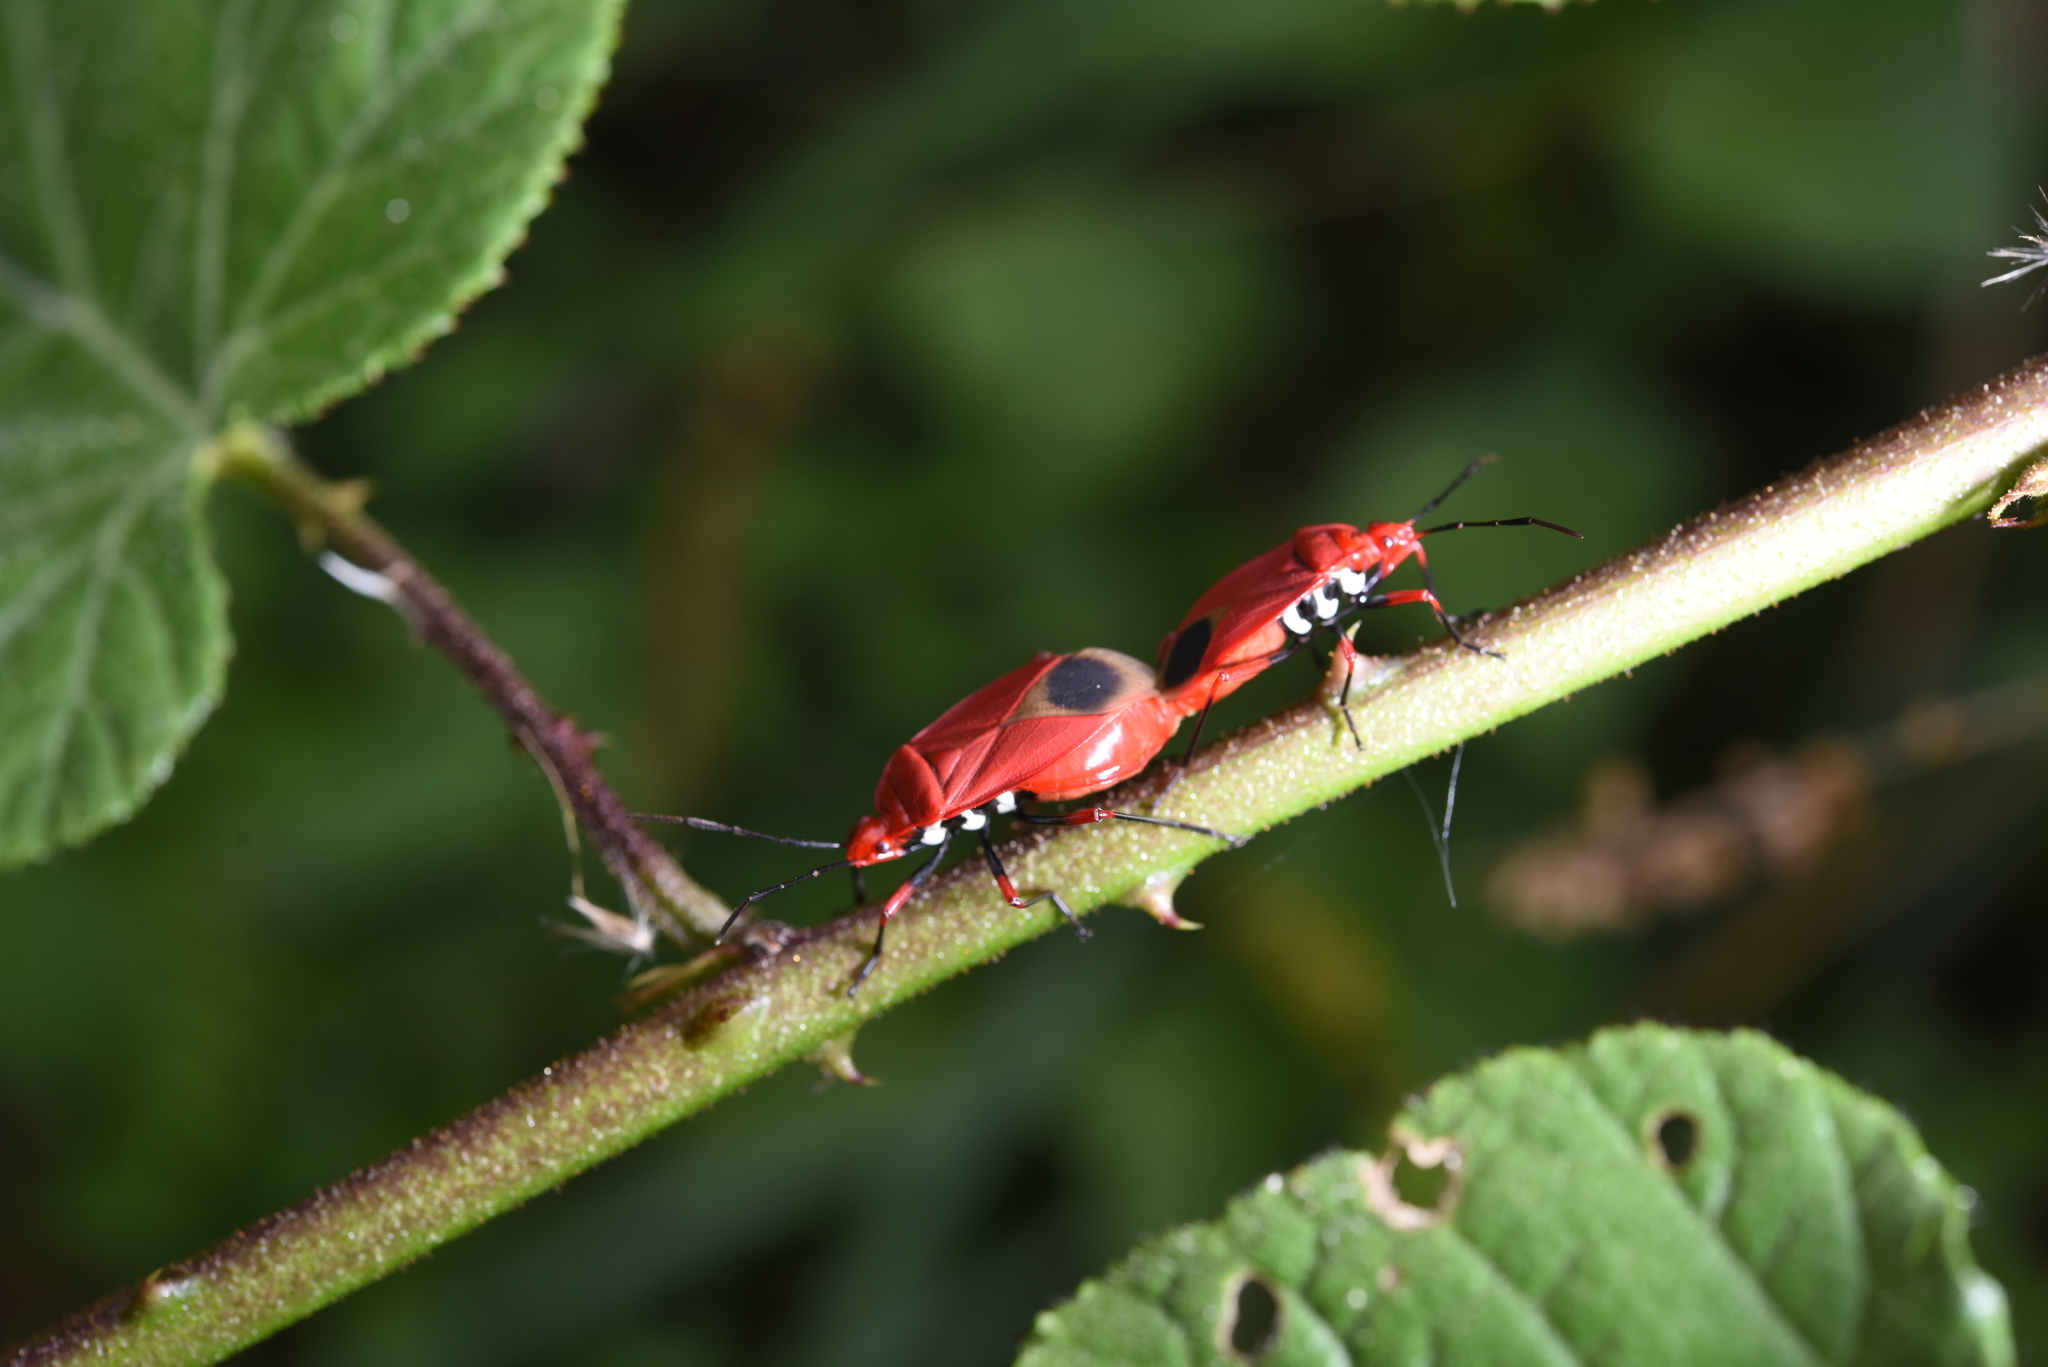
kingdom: Animalia
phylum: Arthropoda
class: Insecta
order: Hemiptera
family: Pyrrhocoridae
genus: Dindymus
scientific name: Dindymus brevis
